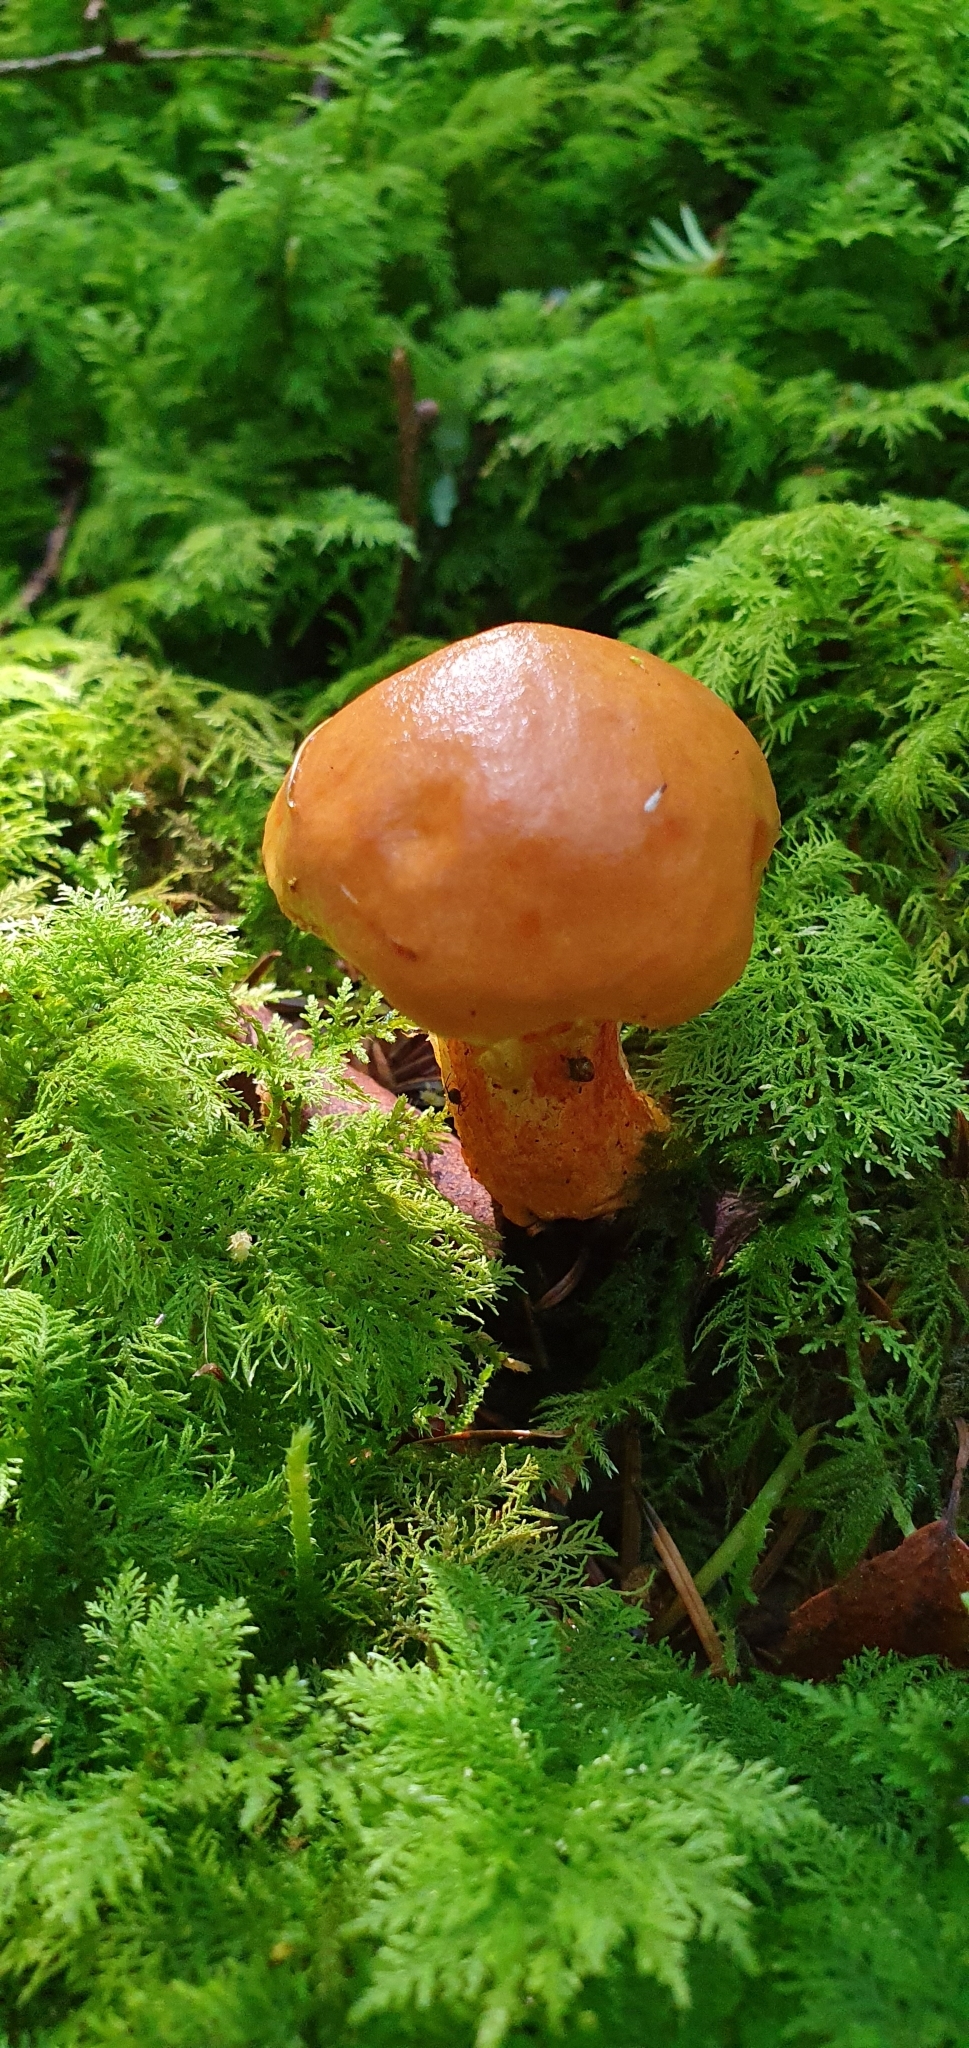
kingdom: Fungi
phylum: Basidiomycota
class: Agaricomycetes
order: Boletales
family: Suillaceae
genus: Suillus
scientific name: Suillus grevillei
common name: Larch bolete
